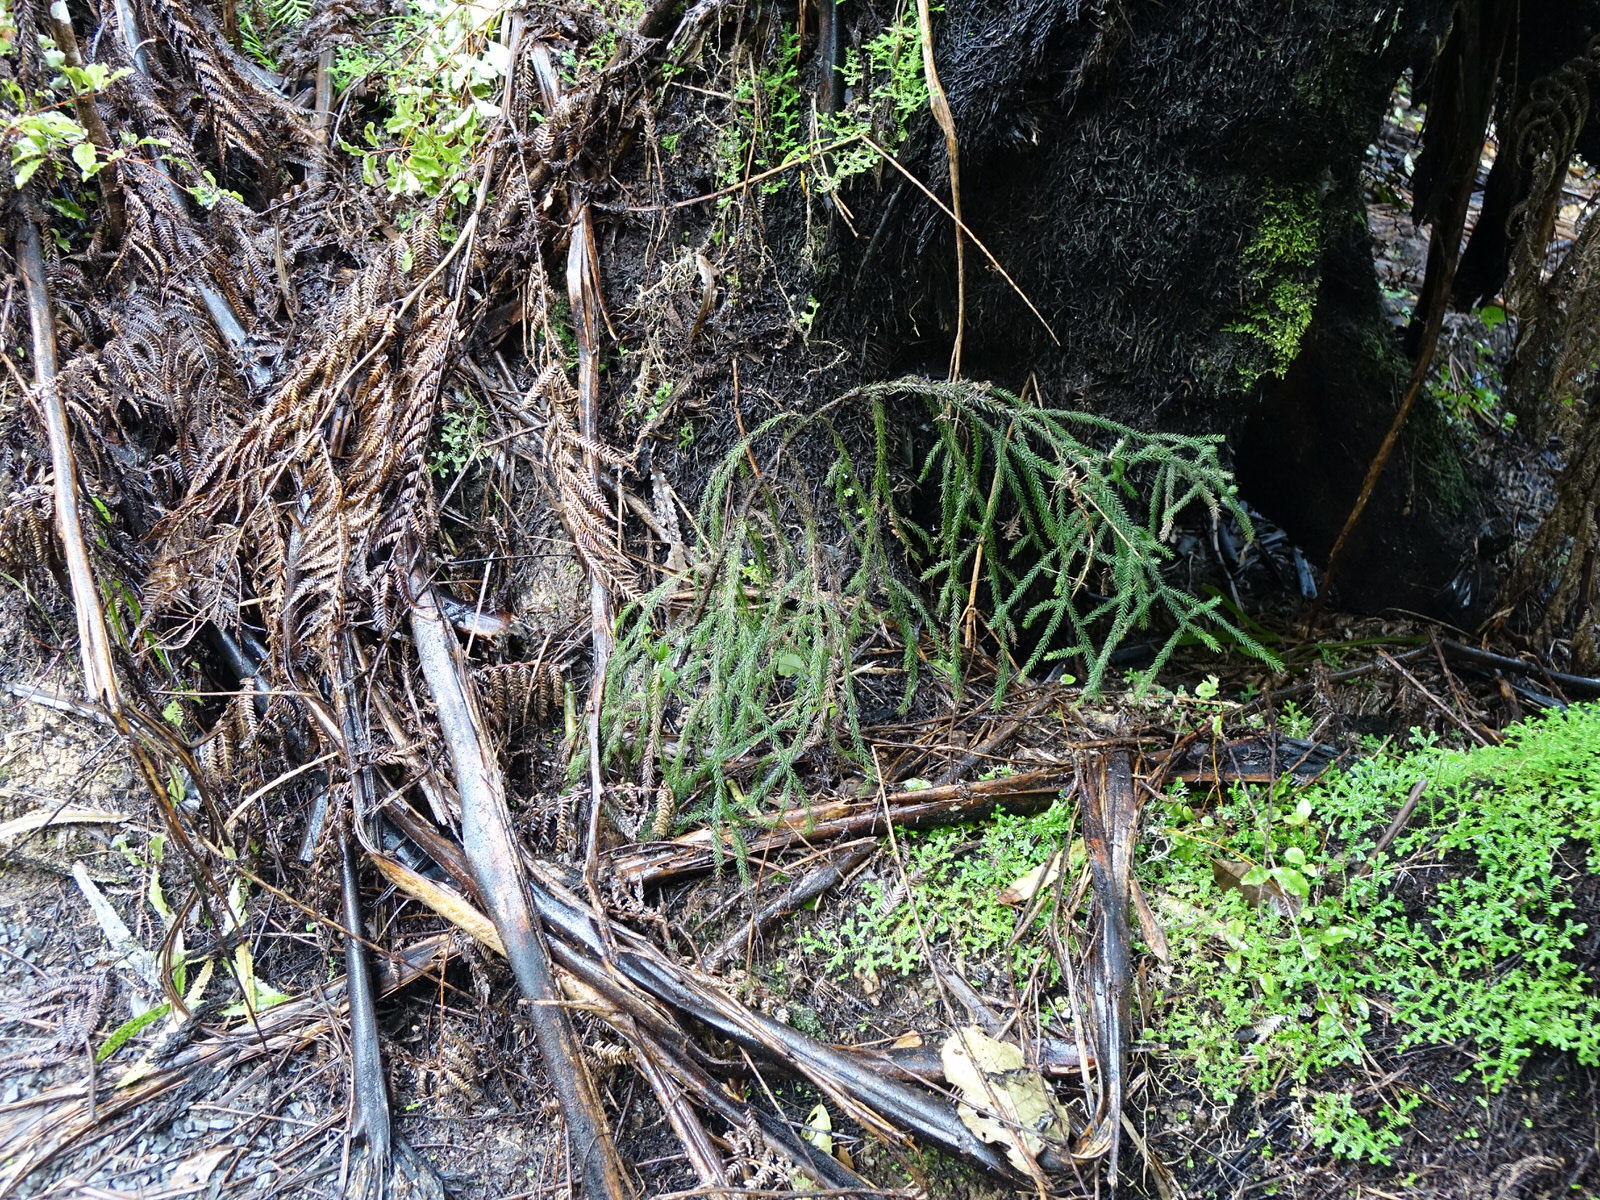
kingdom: Plantae
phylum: Tracheophyta
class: Pinopsida
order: Pinales
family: Podocarpaceae
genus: Dacrydium
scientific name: Dacrydium cupressinum
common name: Red pine
